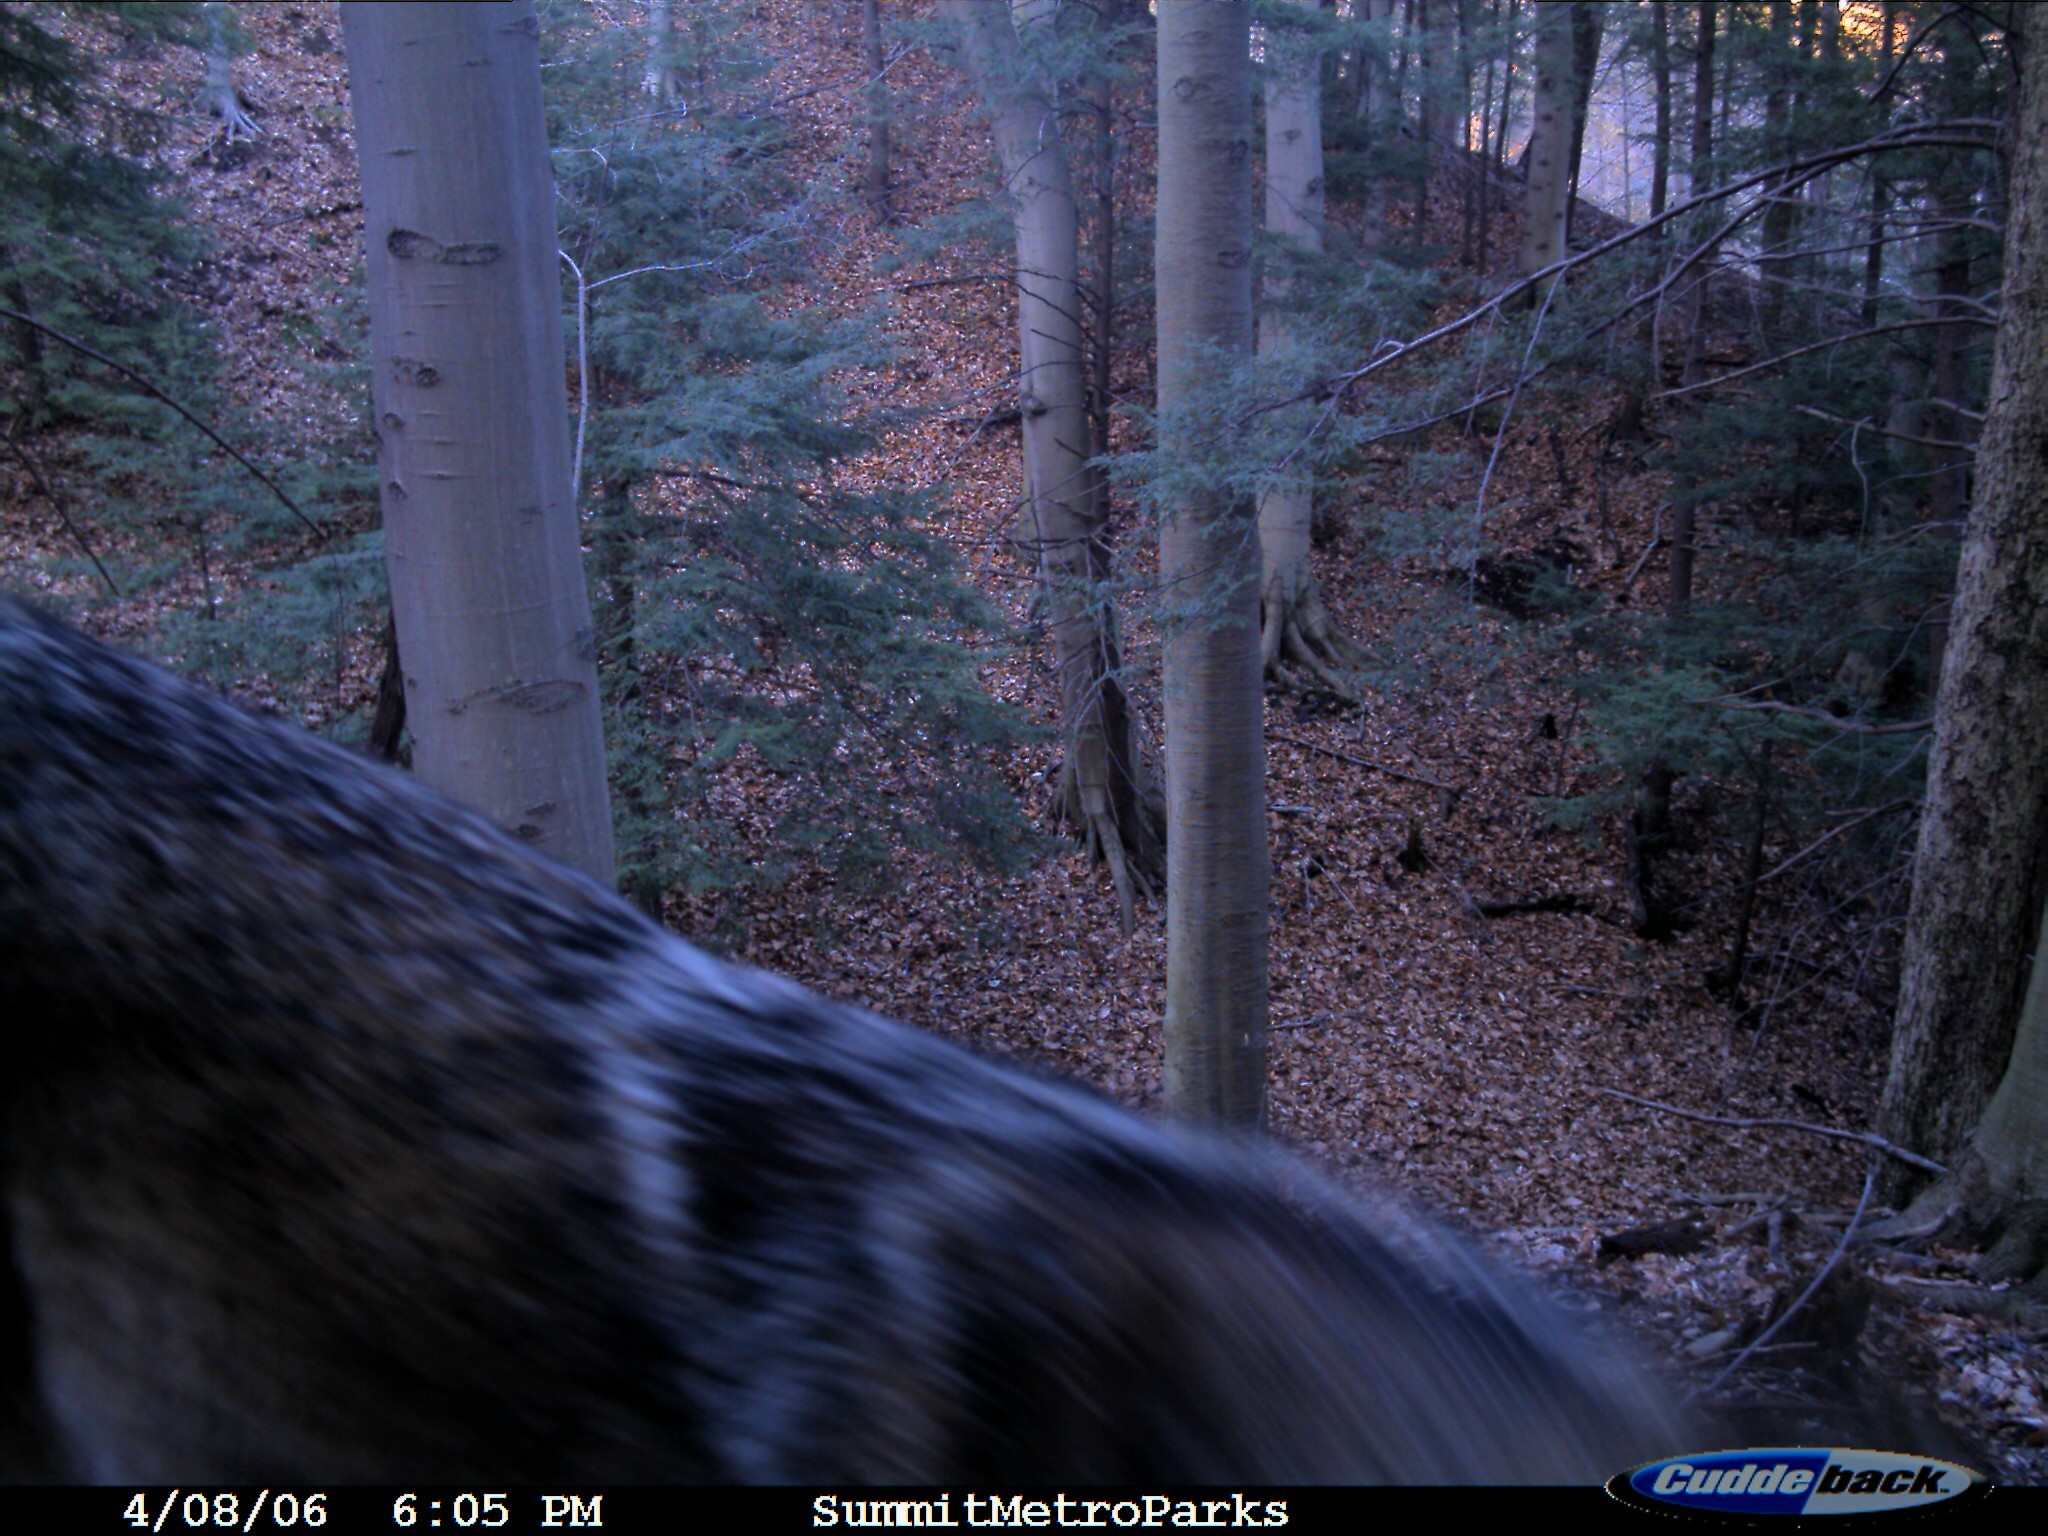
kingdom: Animalia
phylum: Chordata
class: Mammalia
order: Carnivora
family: Canidae
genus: Canis
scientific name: Canis latrans
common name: Coyote
